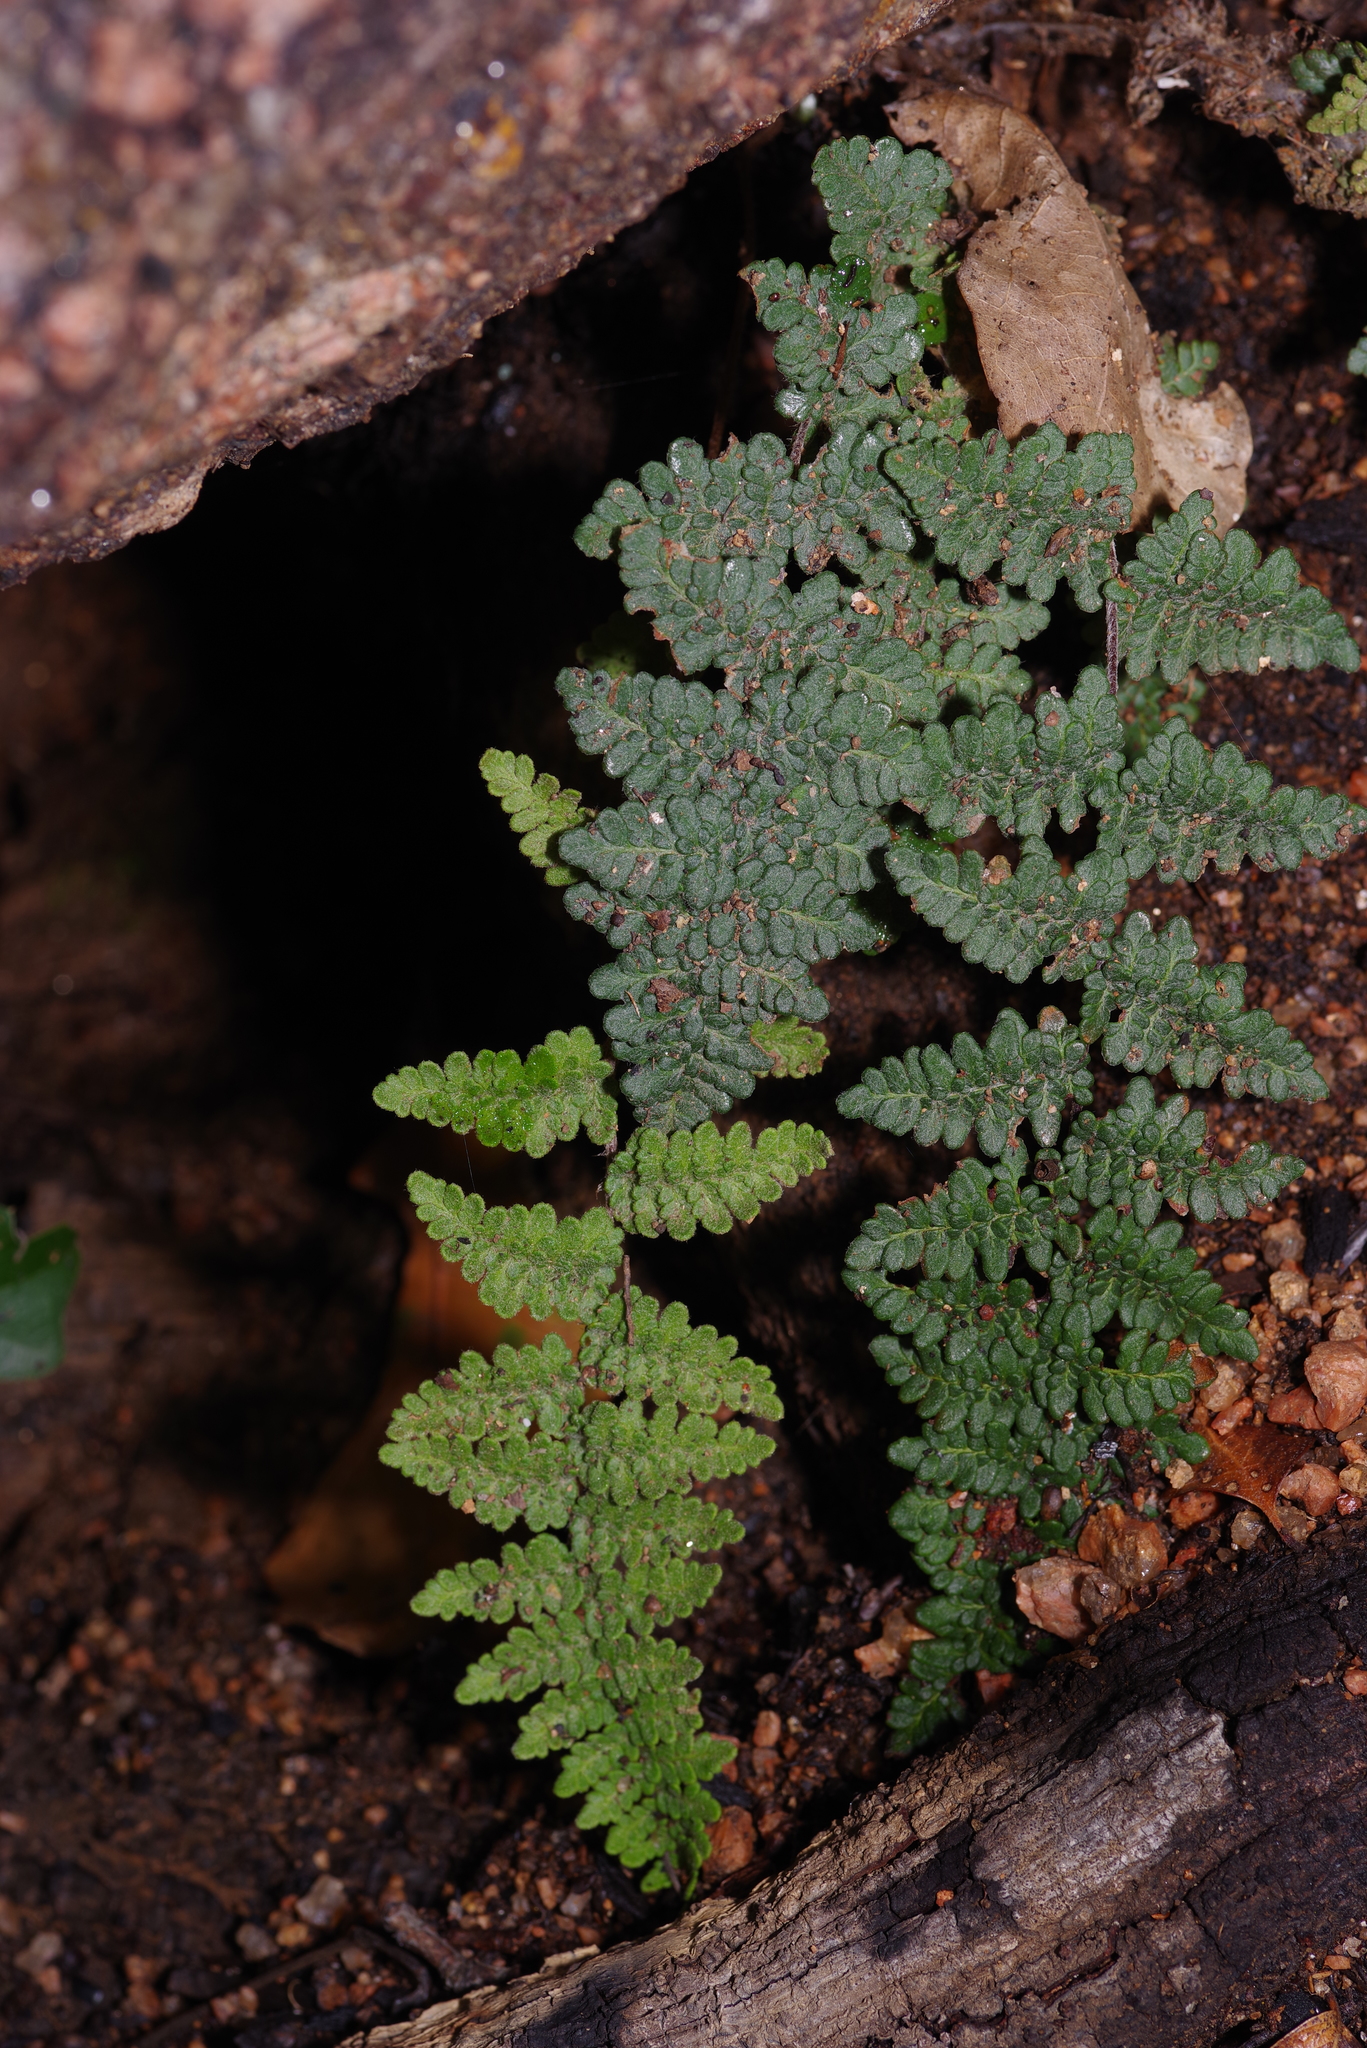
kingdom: Plantae
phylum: Tracheophyta
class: Polypodiopsida
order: Polypodiales
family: Pteridaceae
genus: Myriopteris
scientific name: Myriopteris tomentosa
